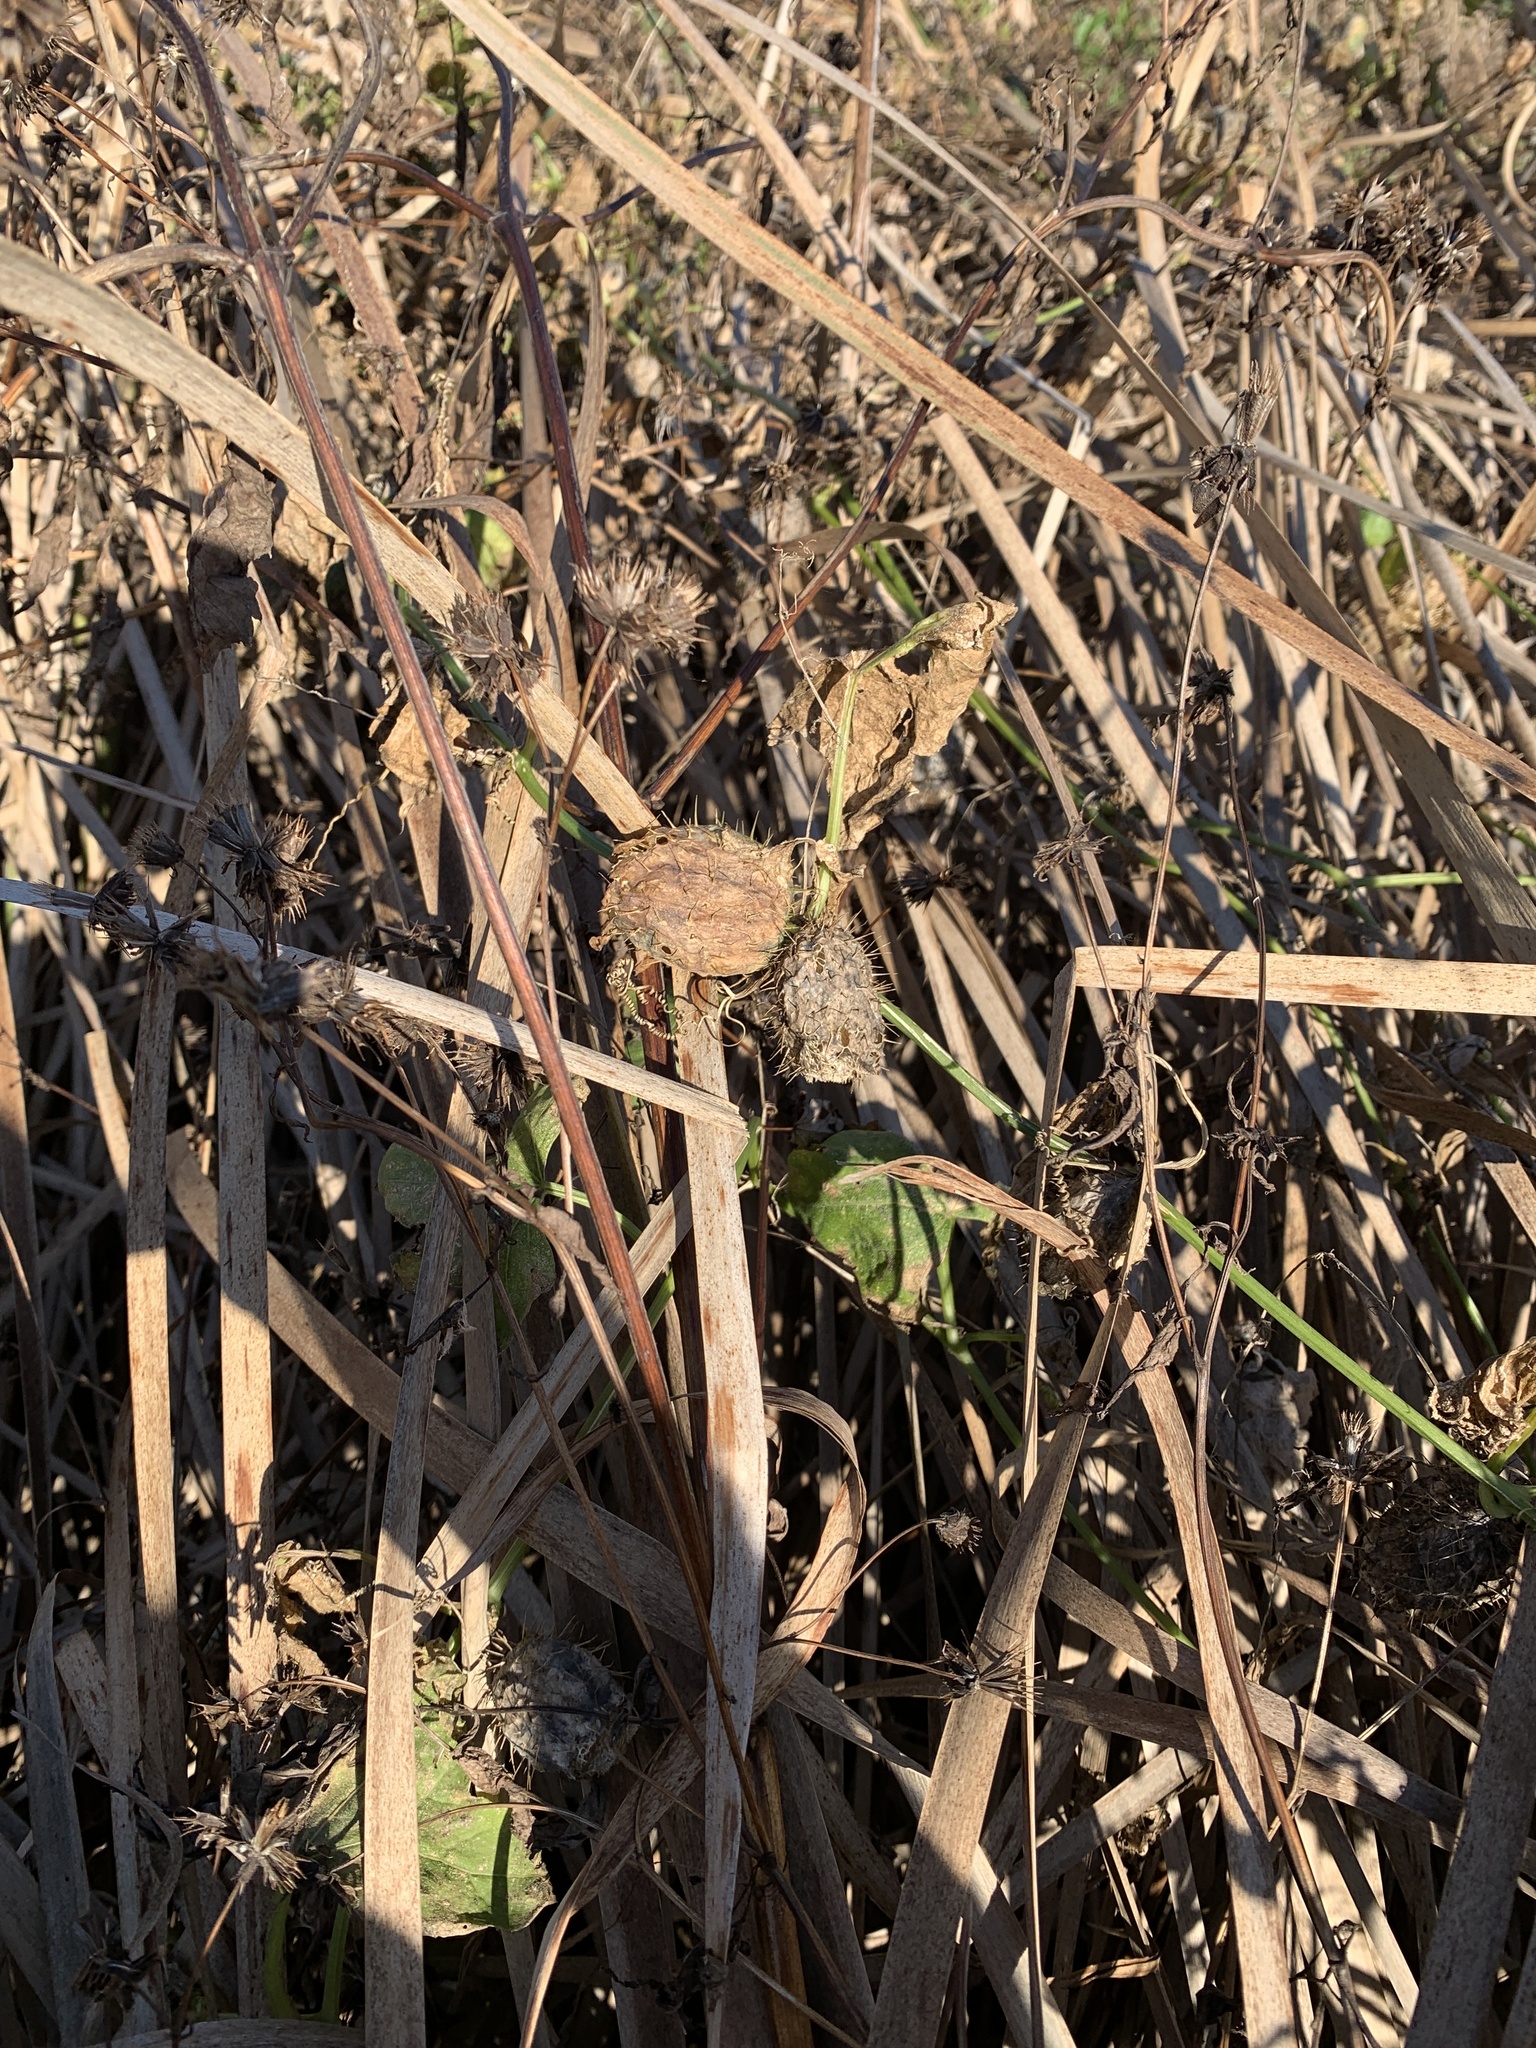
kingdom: Plantae
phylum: Tracheophyta
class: Magnoliopsida
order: Cucurbitales
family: Cucurbitaceae
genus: Echinocystis
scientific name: Echinocystis lobata
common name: Wild cucumber
